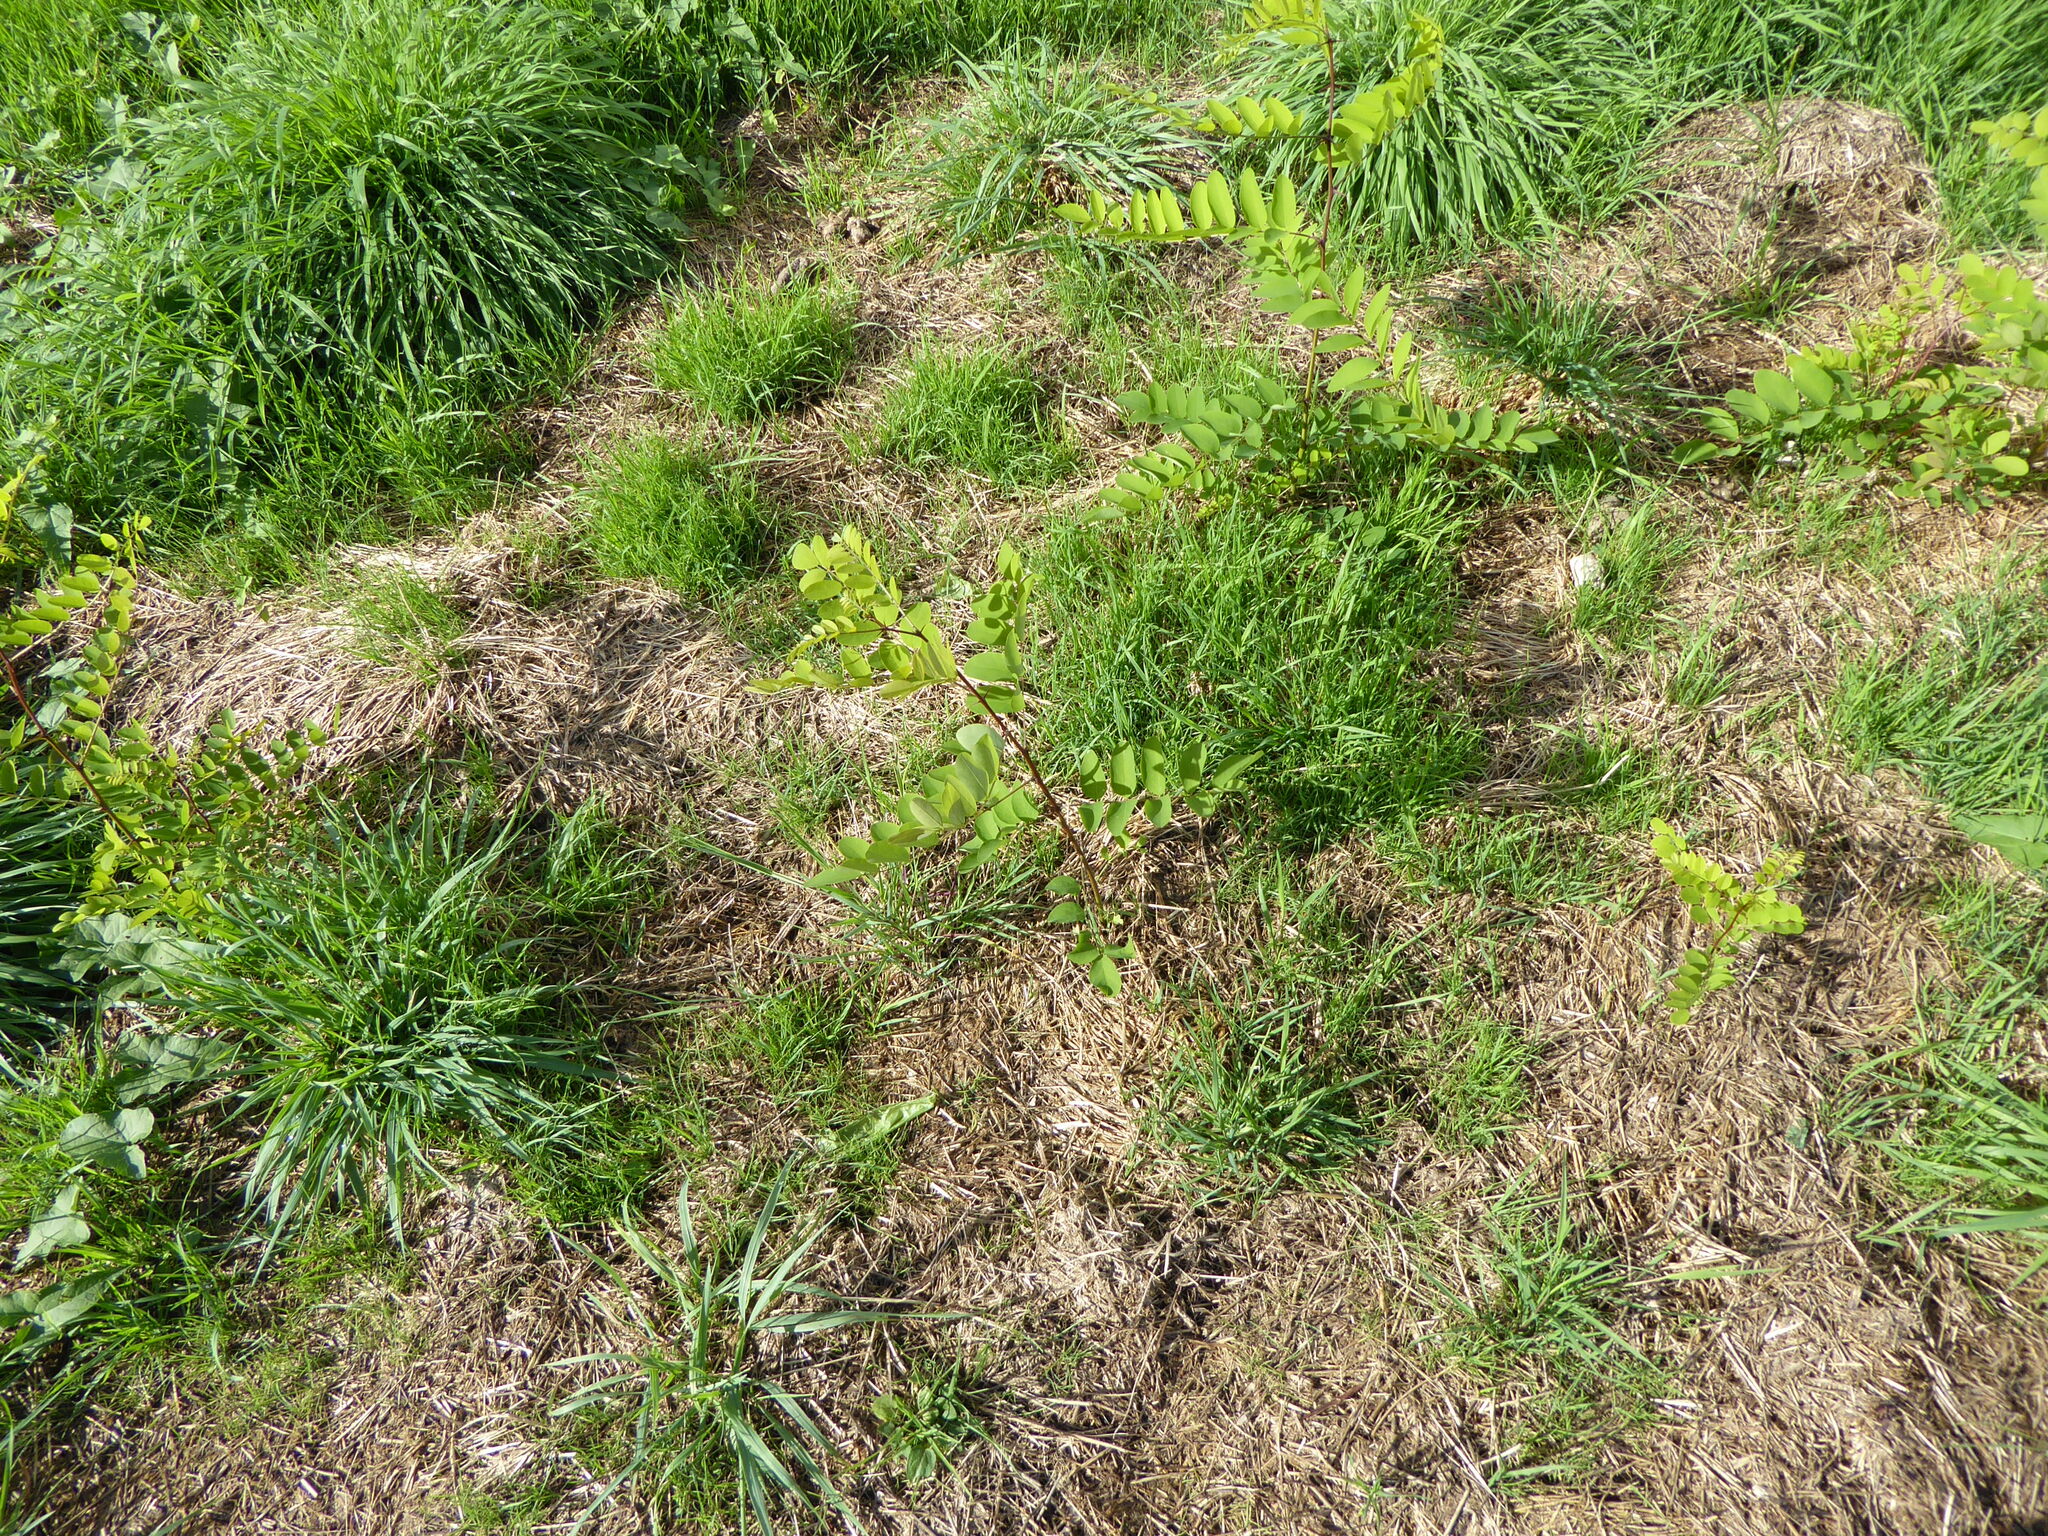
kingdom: Plantae
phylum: Tracheophyta
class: Magnoliopsida
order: Fabales
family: Fabaceae
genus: Robinia
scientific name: Robinia pseudoacacia
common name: Black locust
